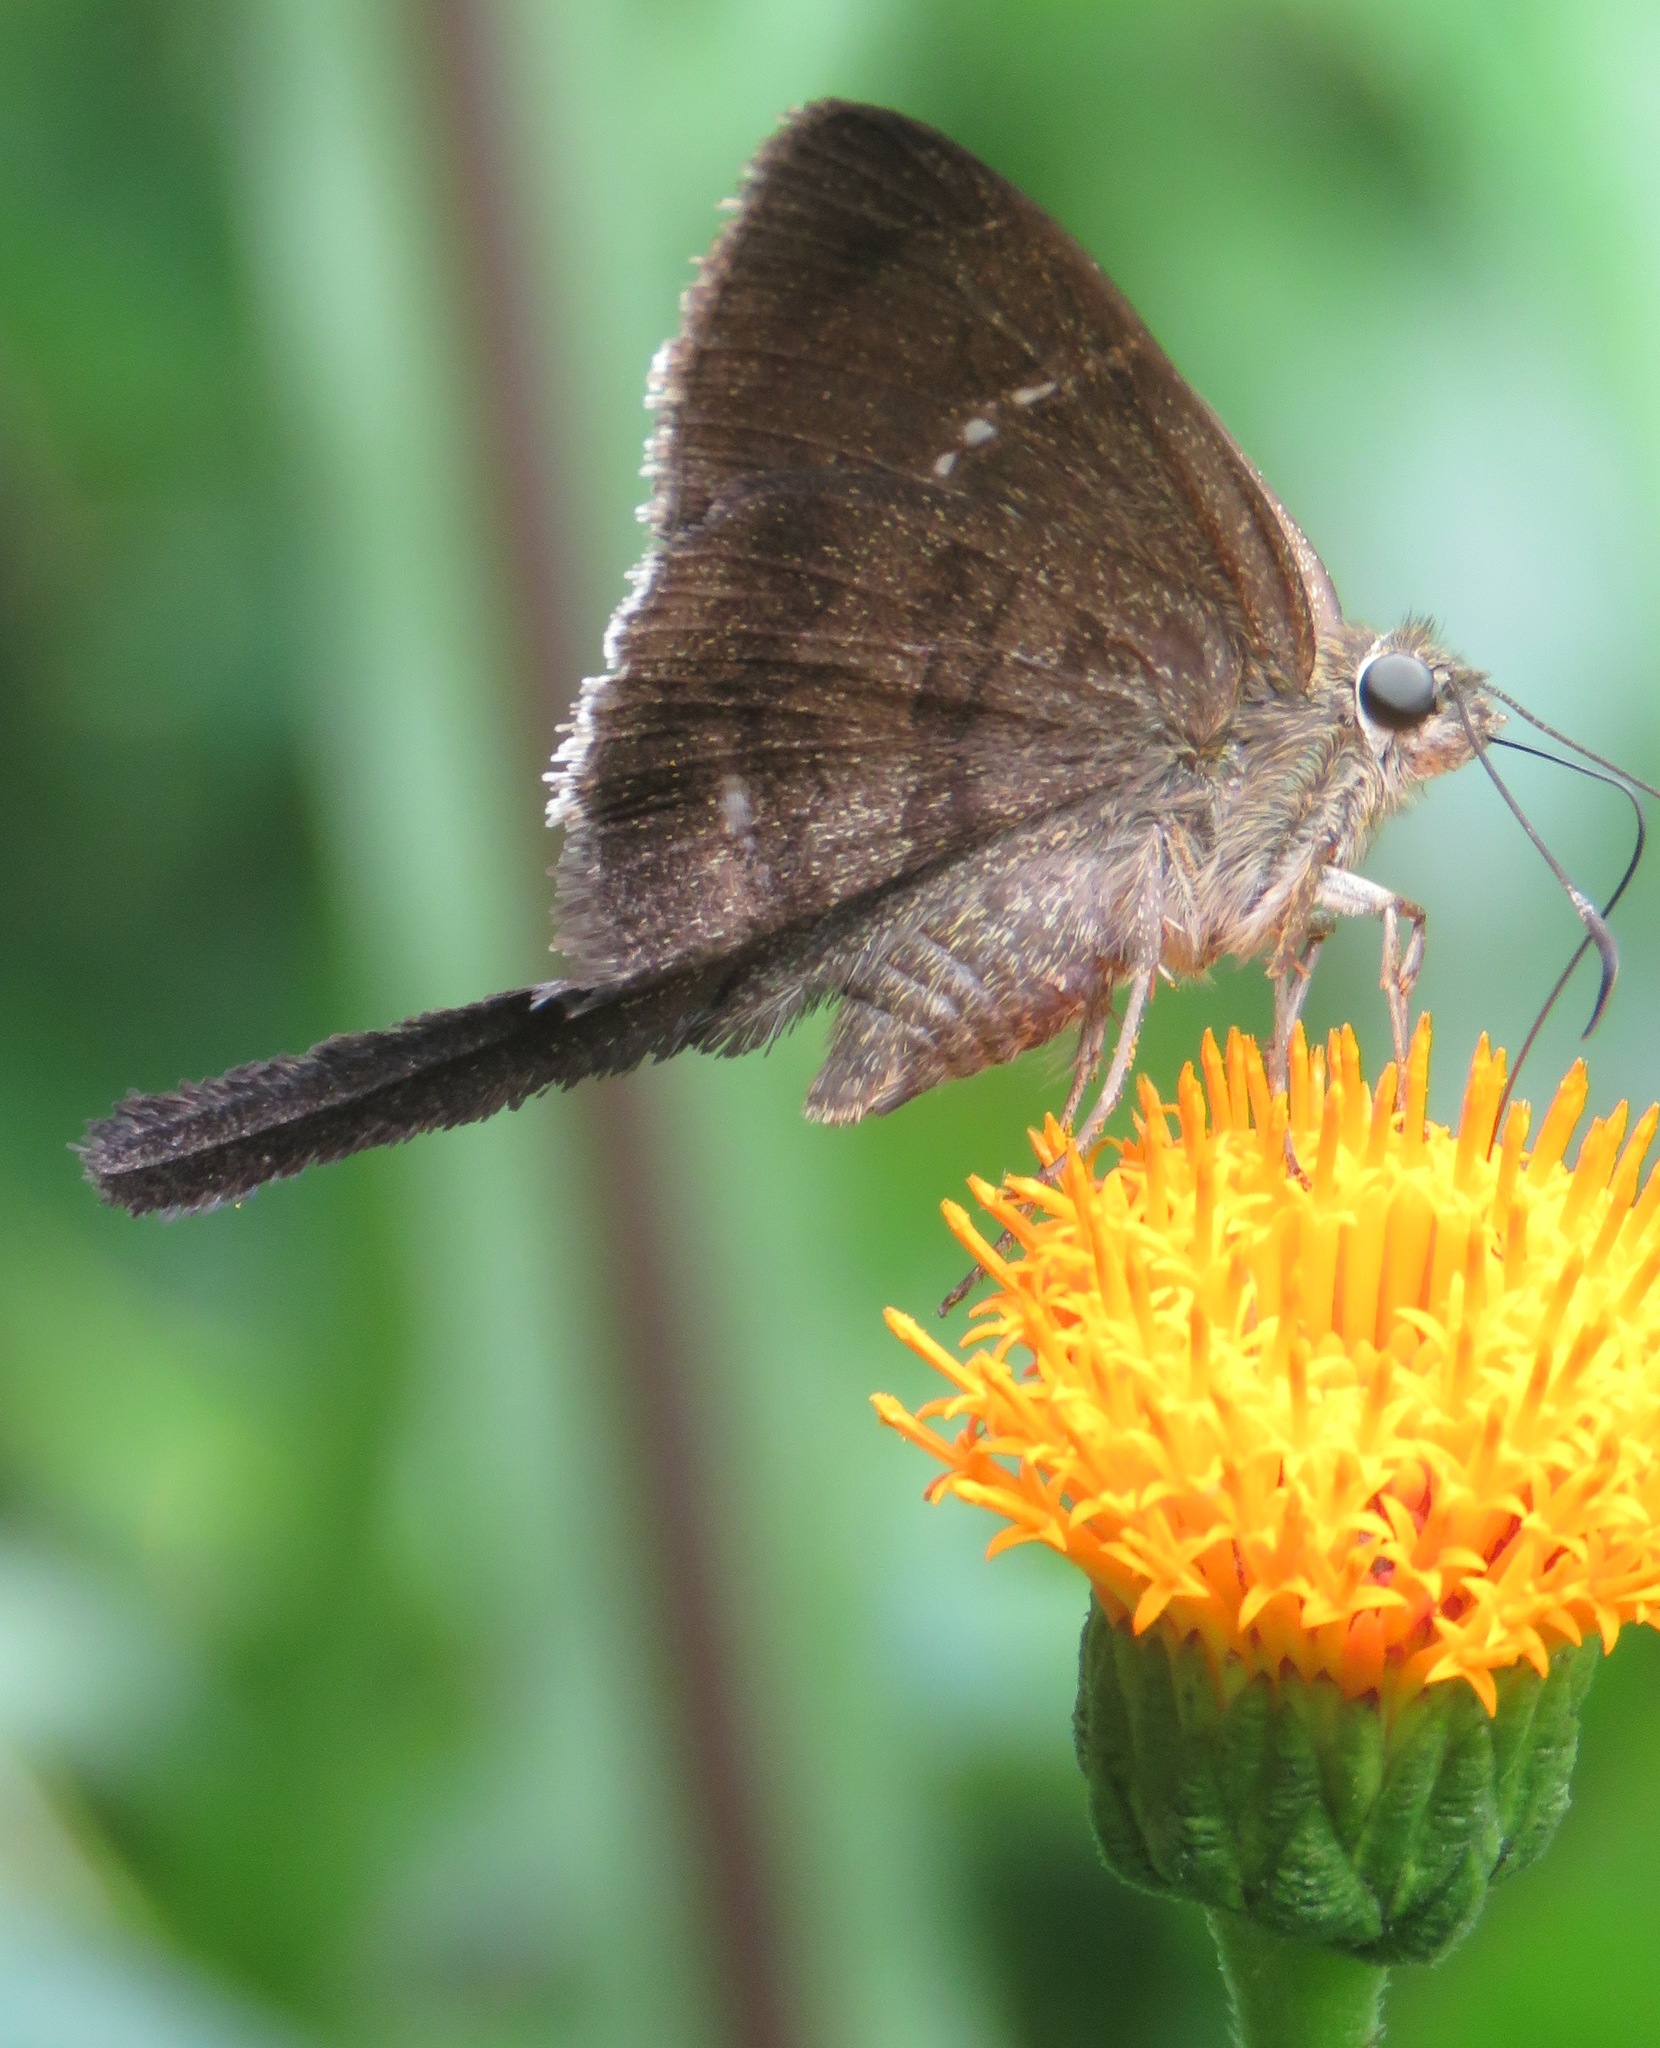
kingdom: Animalia
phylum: Arthropoda
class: Insecta
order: Lepidoptera
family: Hesperiidae
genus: Urbanus
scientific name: Urbanus simplicius
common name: Plain longtail
